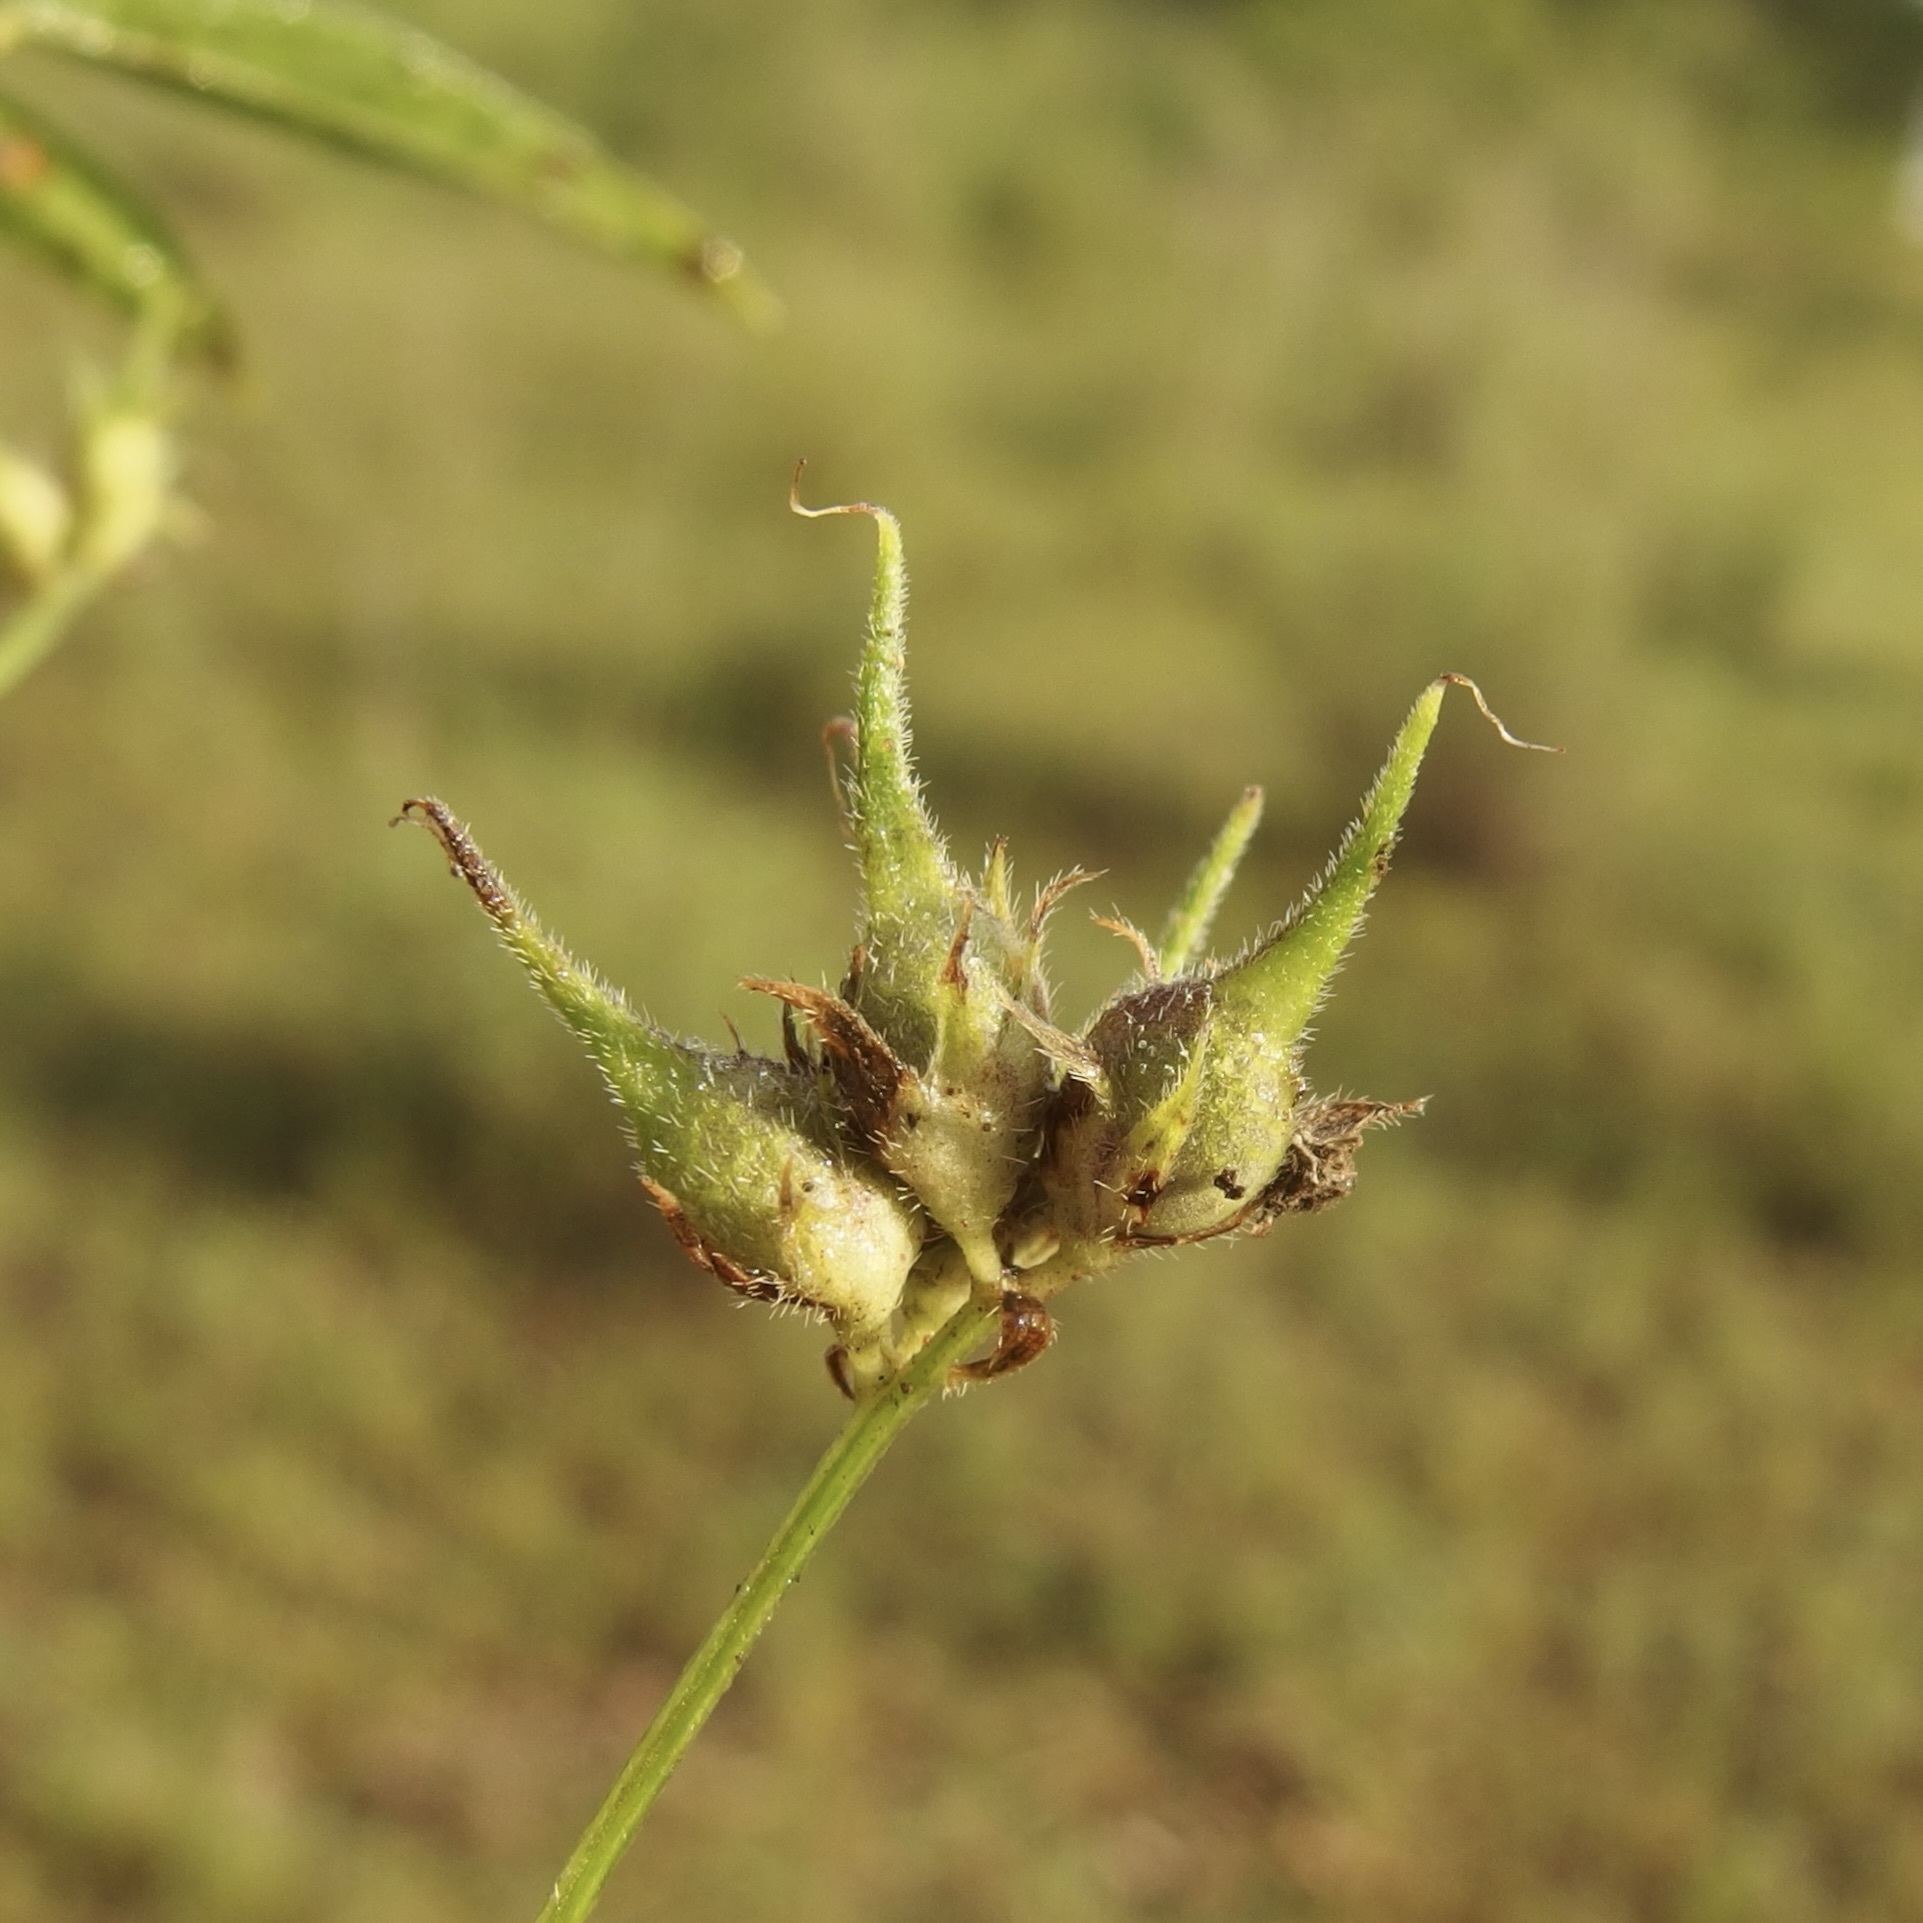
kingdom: Plantae
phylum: Tracheophyta
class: Magnoliopsida
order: Fabales
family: Fabaceae
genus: Pediomelum
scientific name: Pediomelum palmeri
